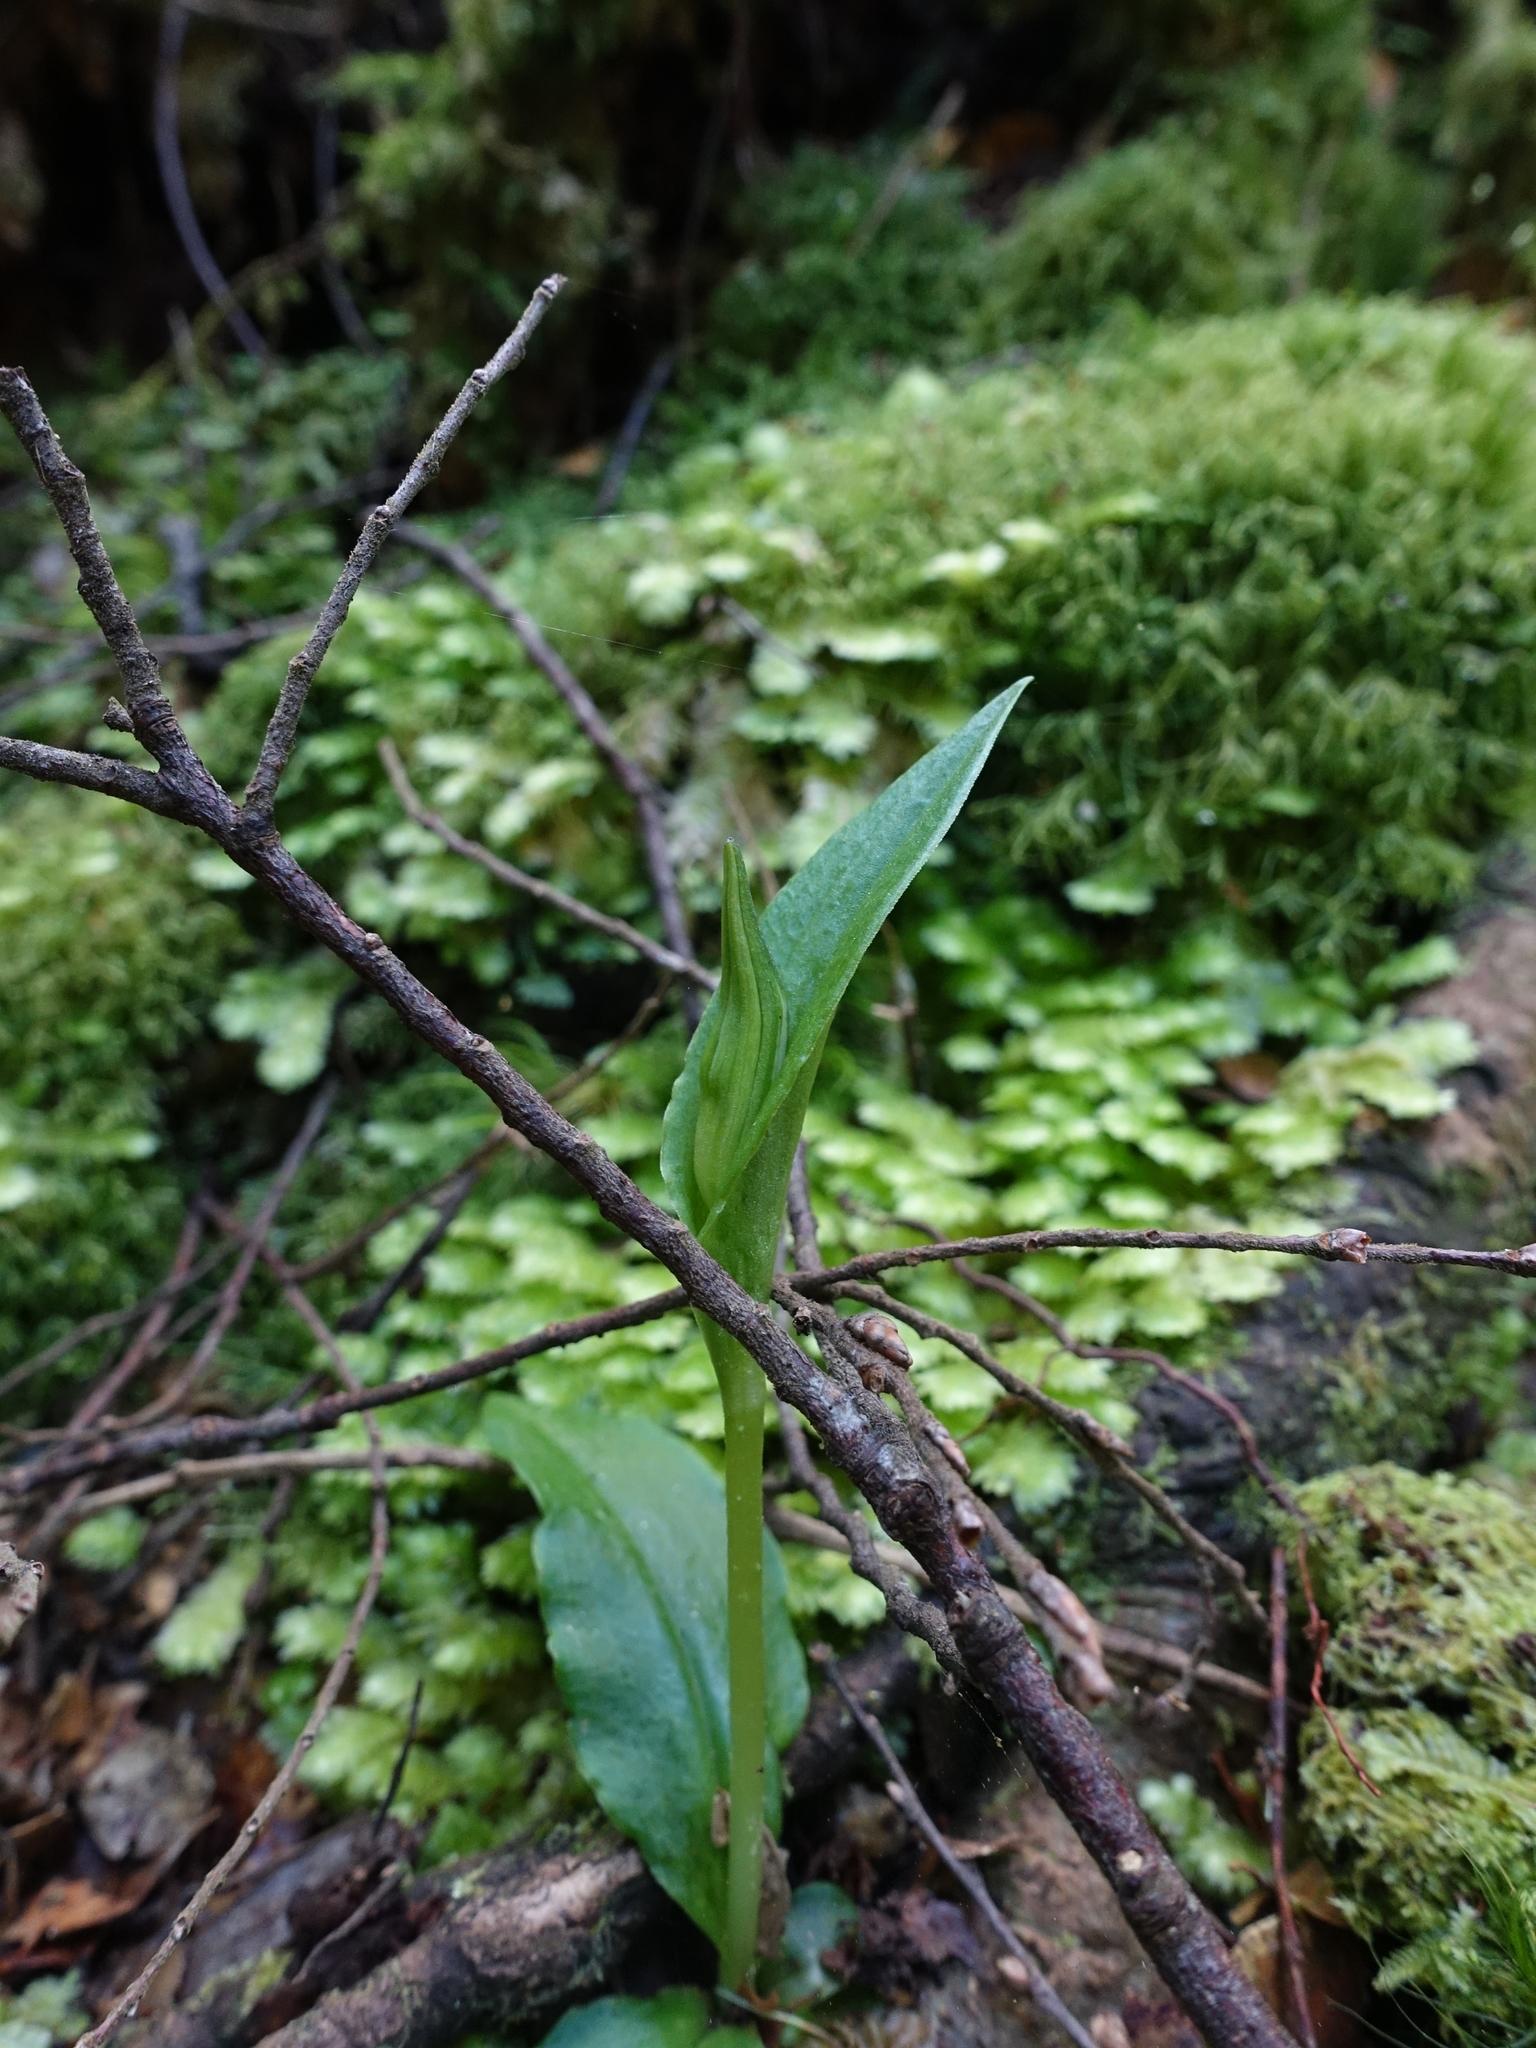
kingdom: Plantae
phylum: Tracheophyta
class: Liliopsida
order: Asparagales
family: Orchidaceae
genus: Pterostylis
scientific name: Pterostylis scabrida
